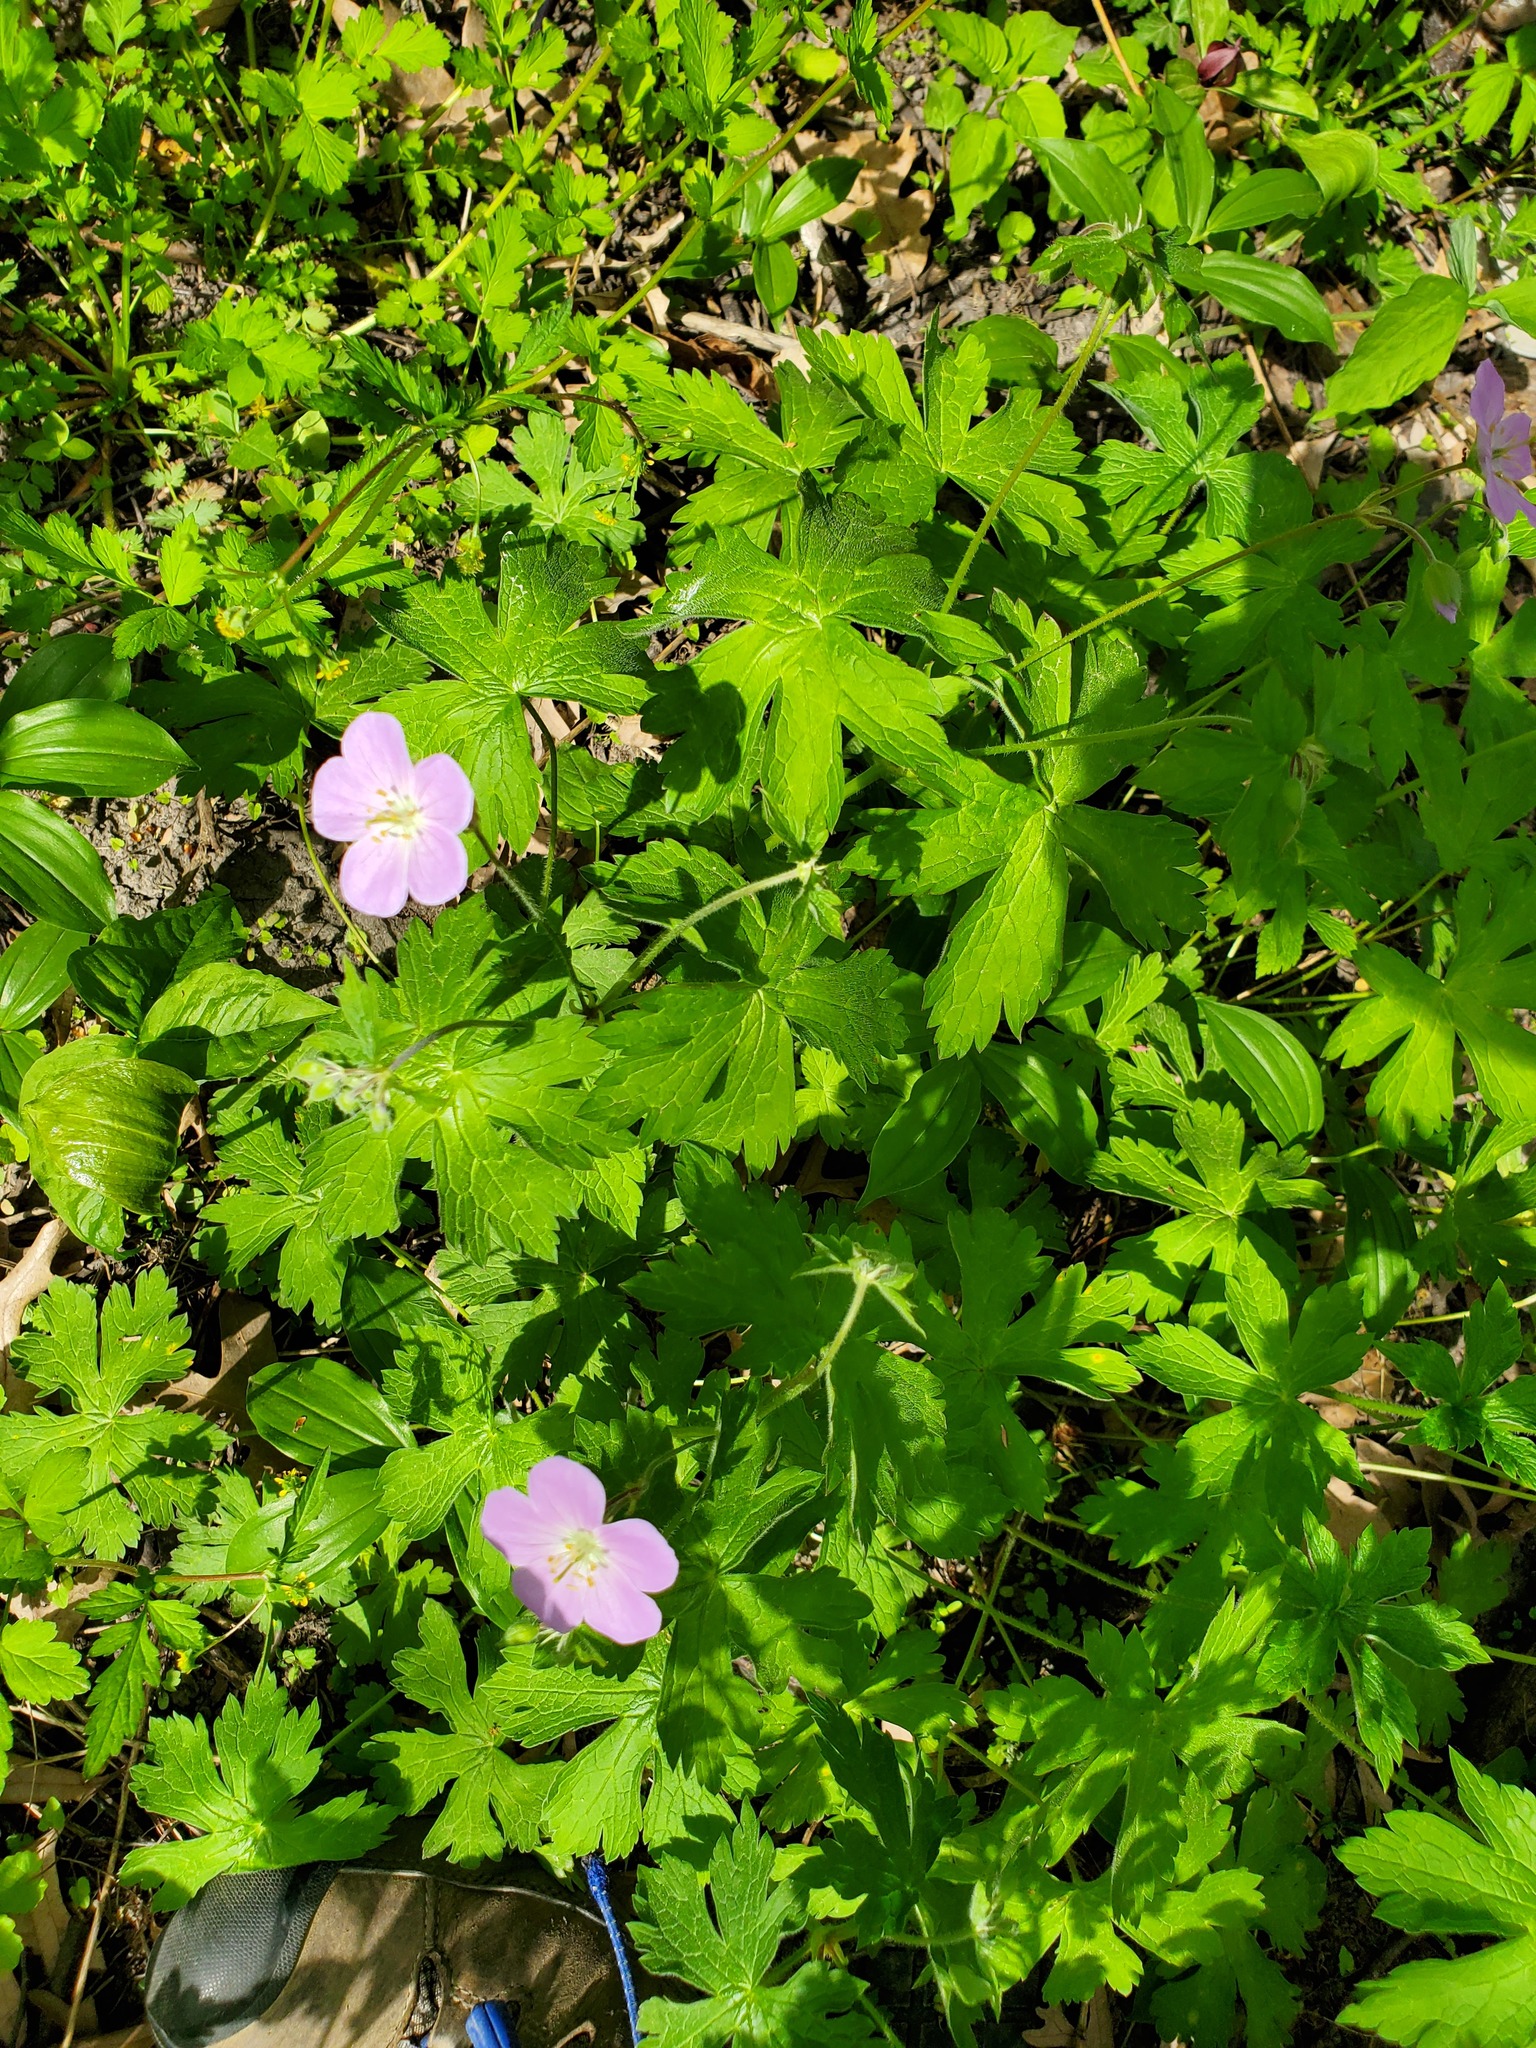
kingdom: Plantae
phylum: Tracheophyta
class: Magnoliopsida
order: Geraniales
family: Geraniaceae
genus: Geranium
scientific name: Geranium maculatum
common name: Spotted geranium
